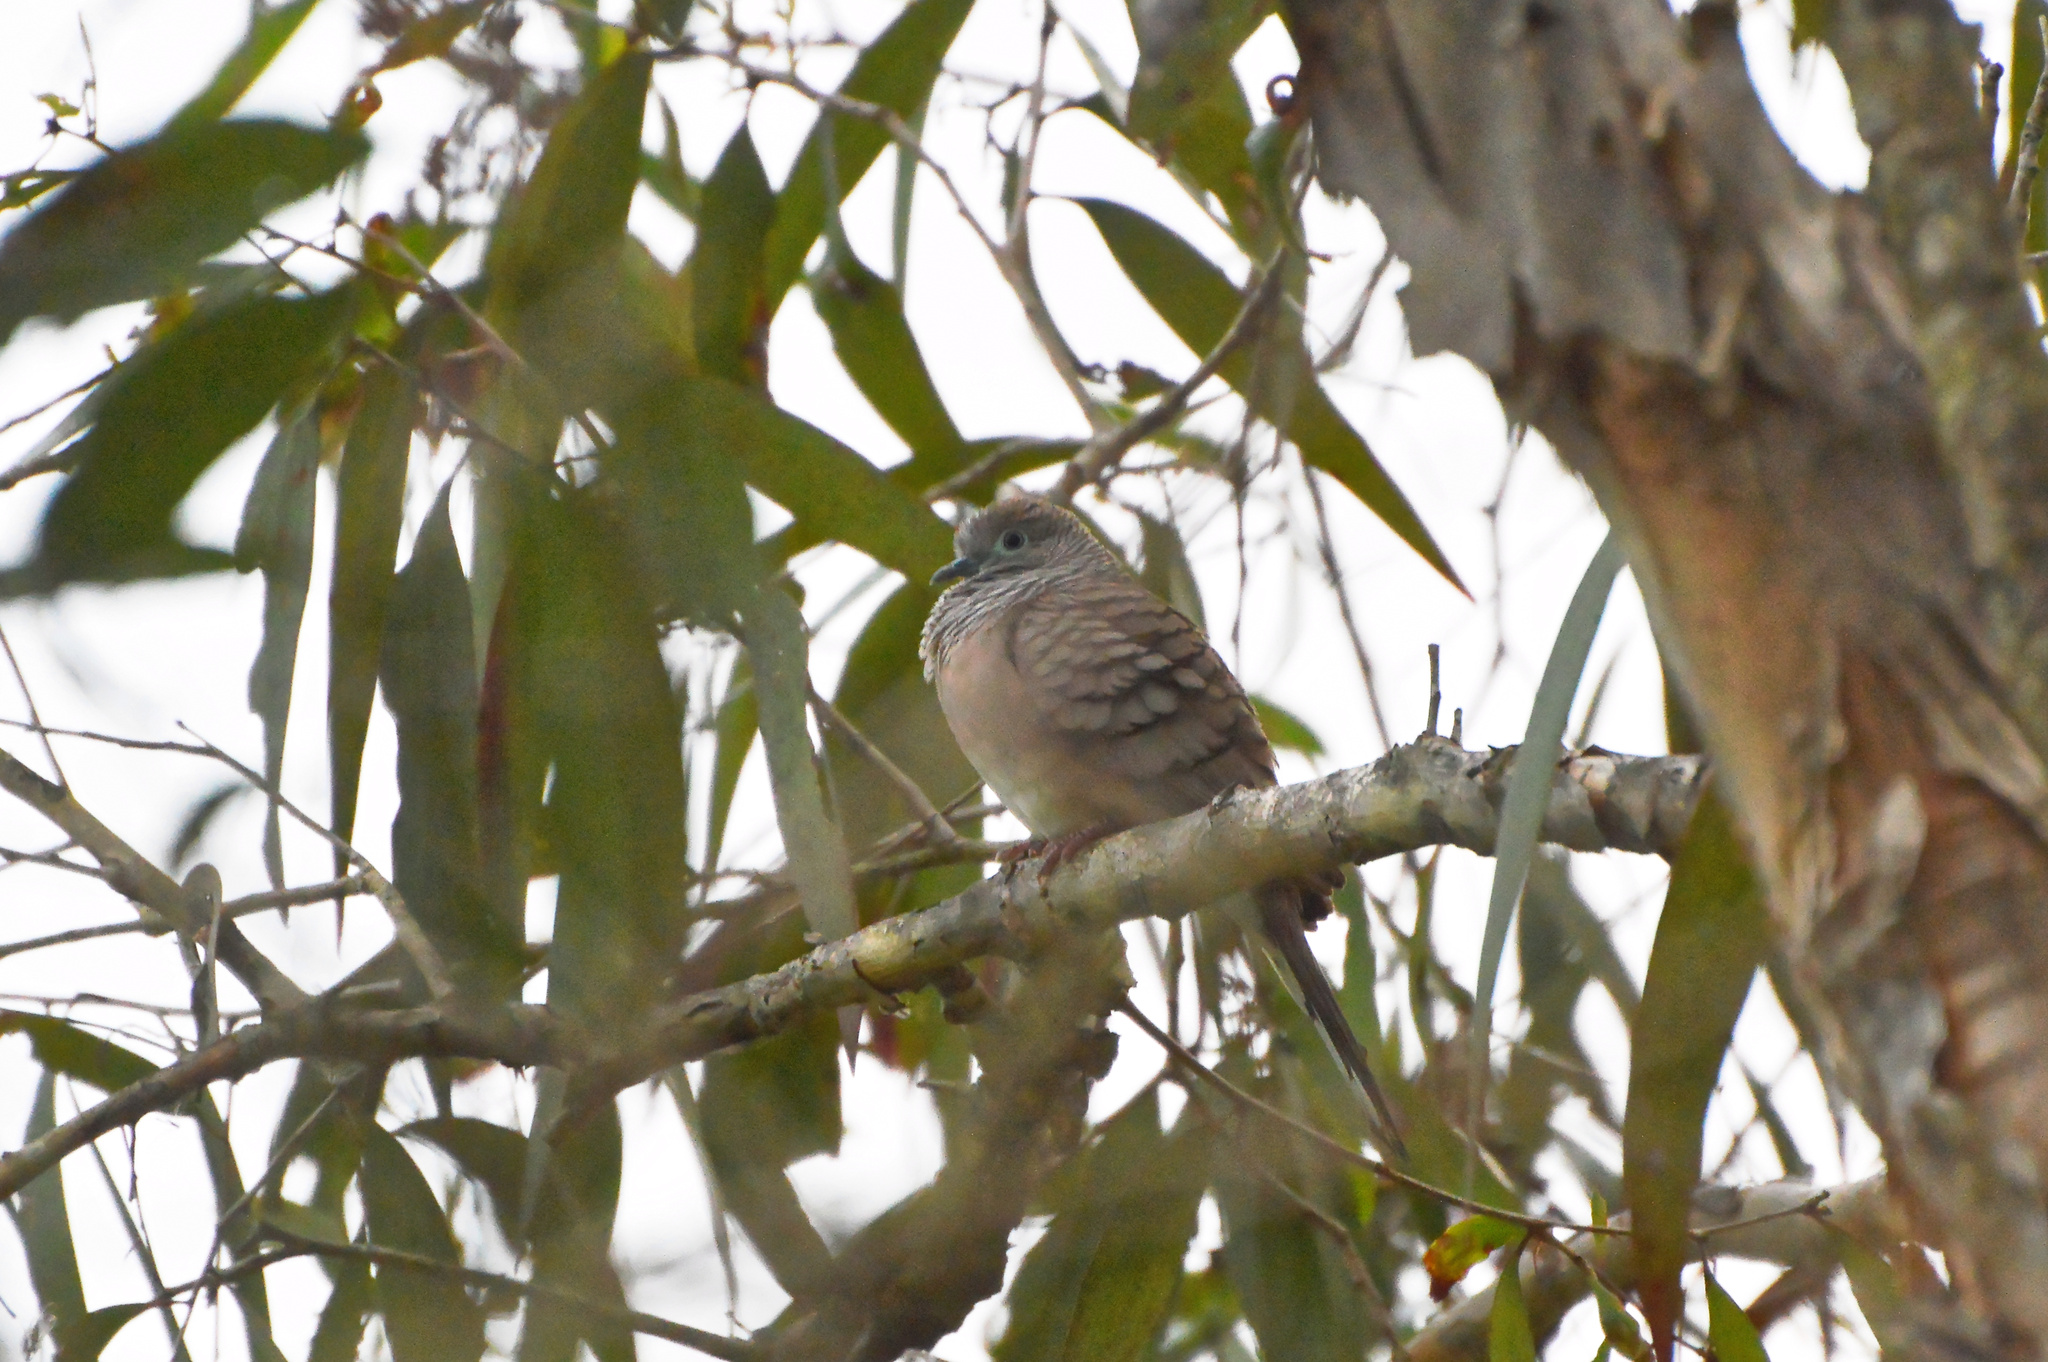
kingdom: Animalia
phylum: Chordata
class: Aves
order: Columbiformes
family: Columbidae
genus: Geopelia
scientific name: Geopelia placida
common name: Peaceful dove
